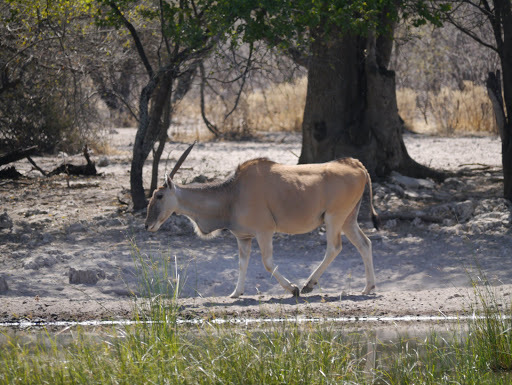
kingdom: Animalia
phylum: Chordata
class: Mammalia
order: Artiodactyla
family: Bovidae
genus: Taurotragus
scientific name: Taurotragus oryx
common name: Common eland
